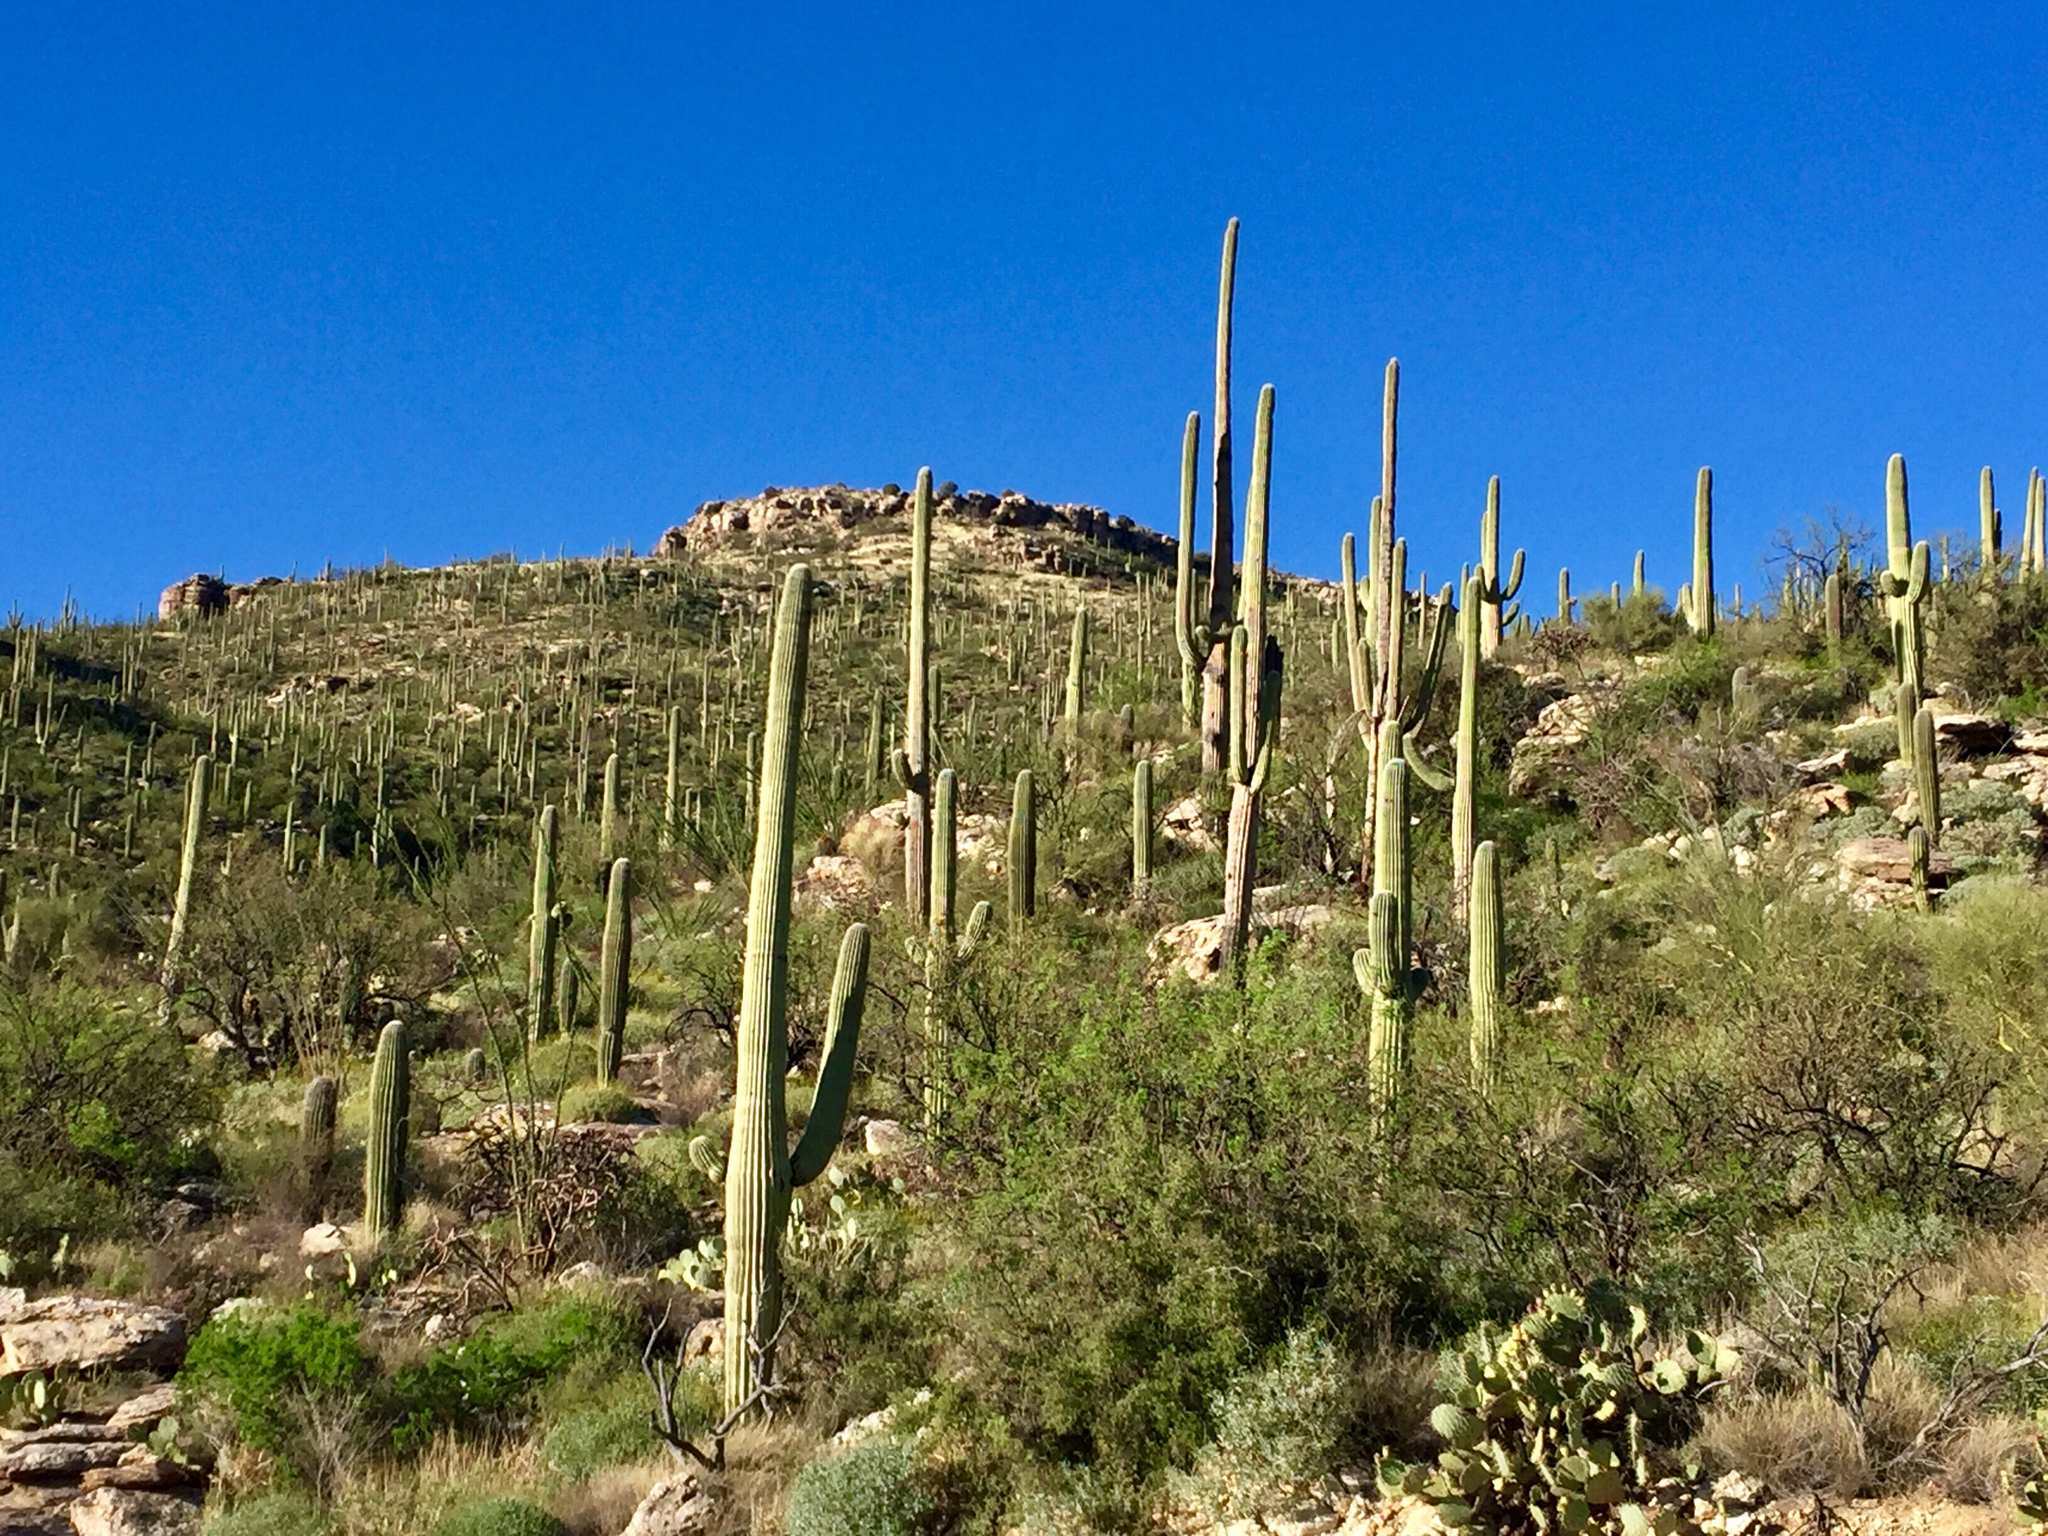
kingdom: Plantae
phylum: Tracheophyta
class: Magnoliopsida
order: Caryophyllales
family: Cactaceae
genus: Carnegiea
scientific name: Carnegiea gigantea
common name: Saguaro
